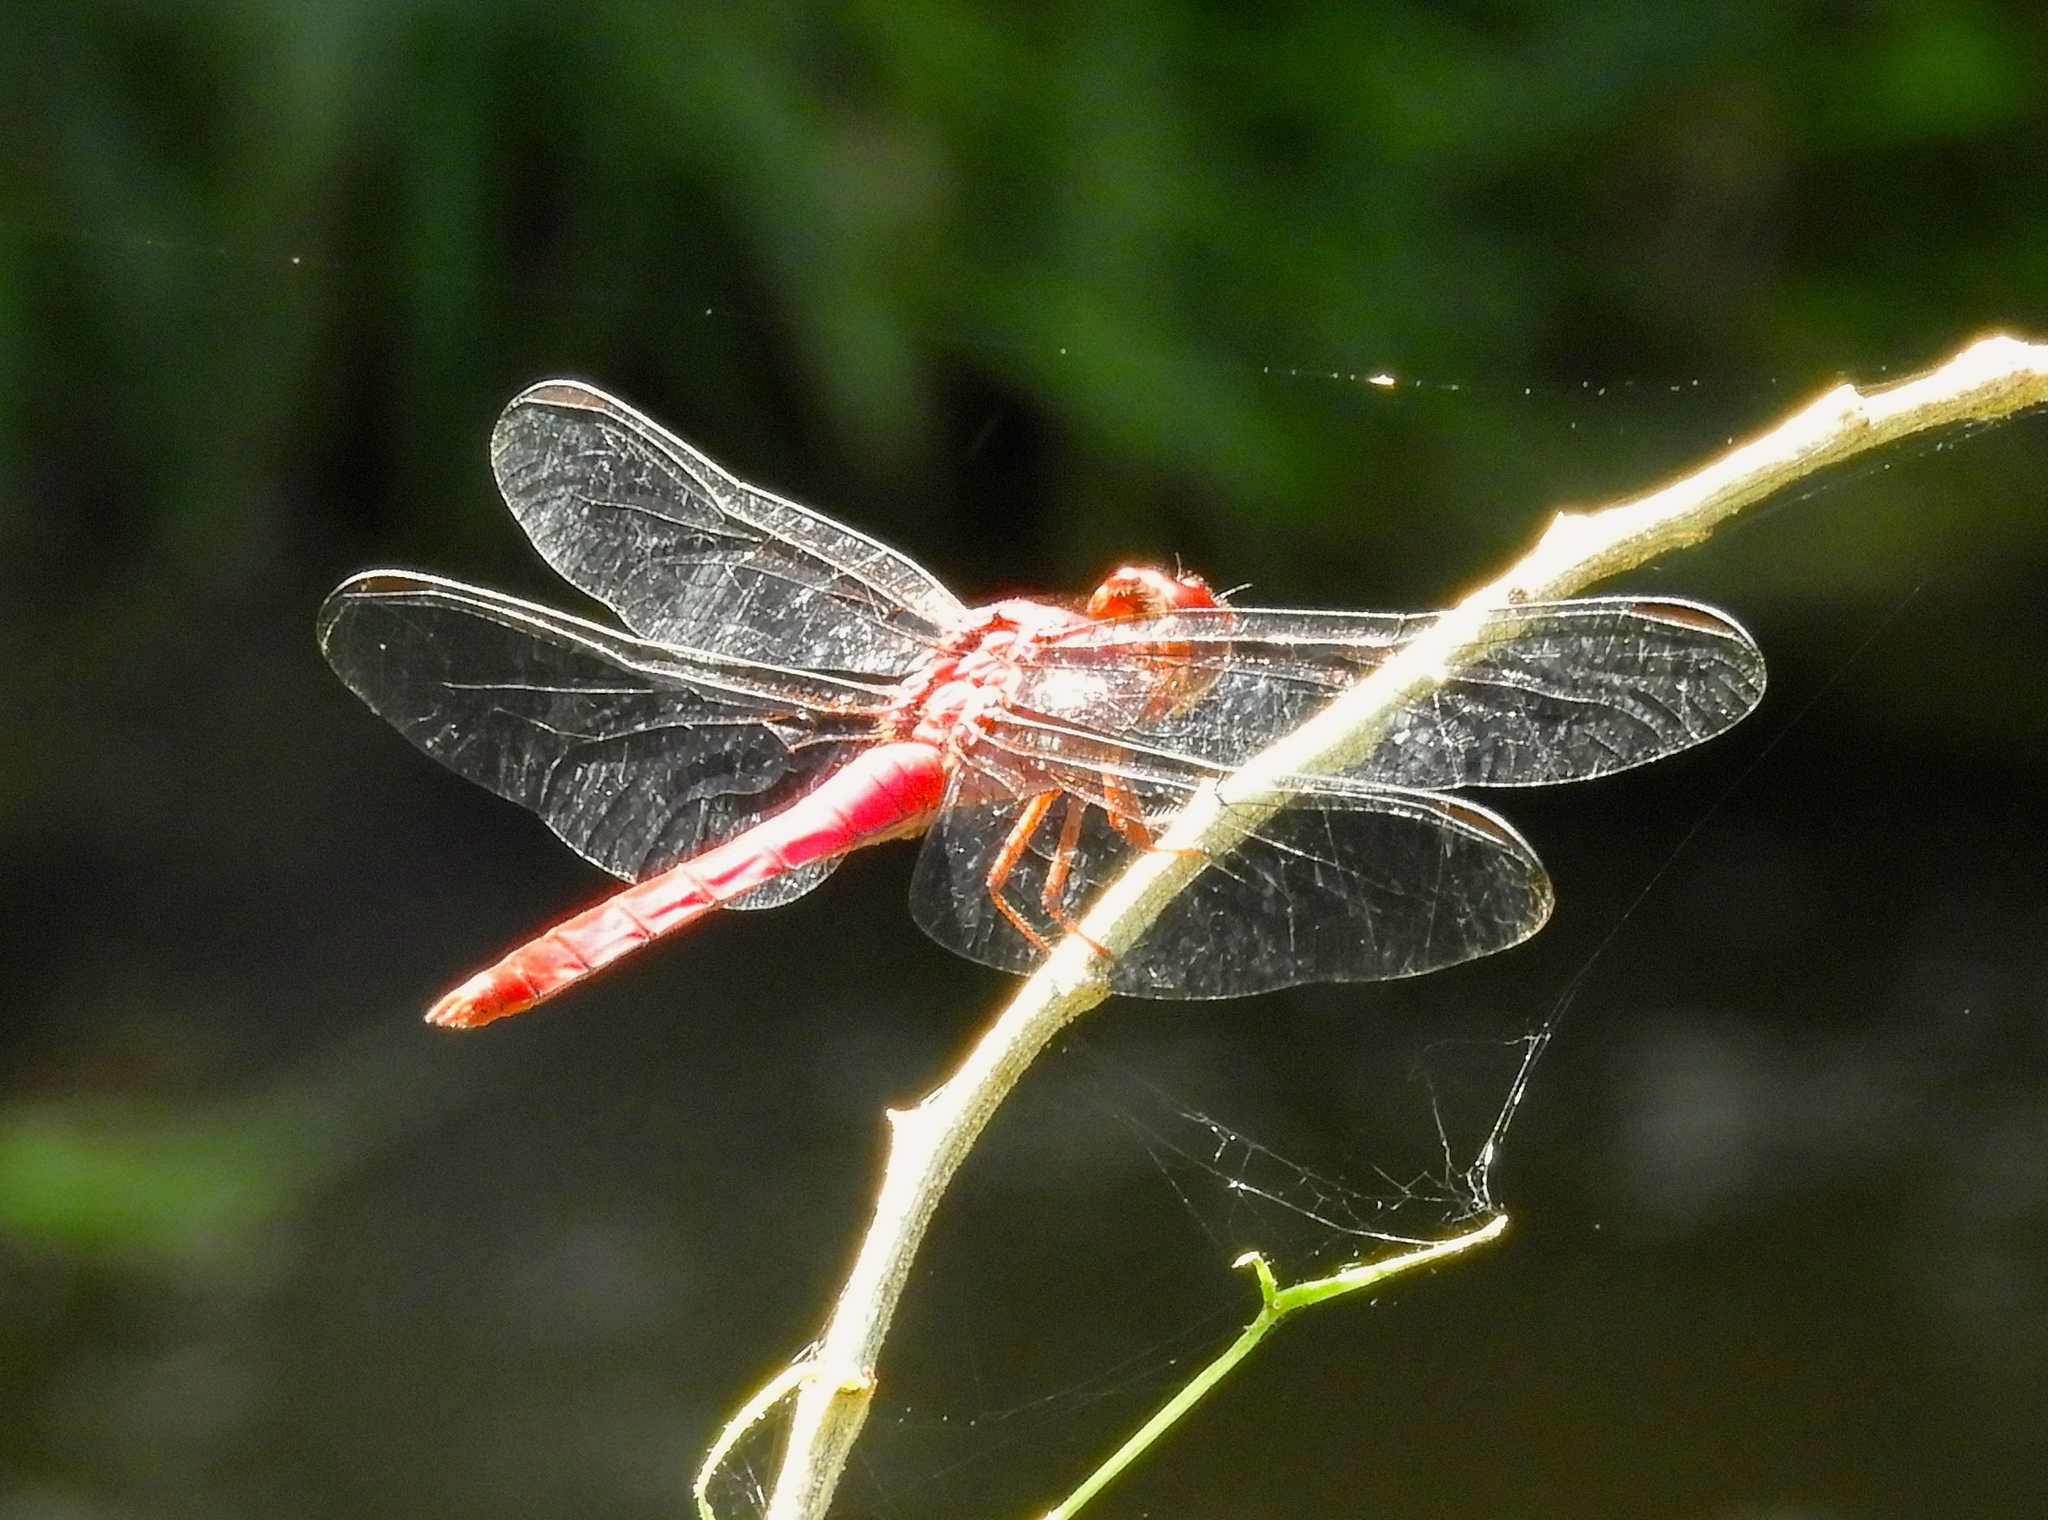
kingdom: Animalia
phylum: Arthropoda
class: Insecta
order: Odonata
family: Libellulidae
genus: Orthemis
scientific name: Orthemis discolor
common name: Carmine skimmer
